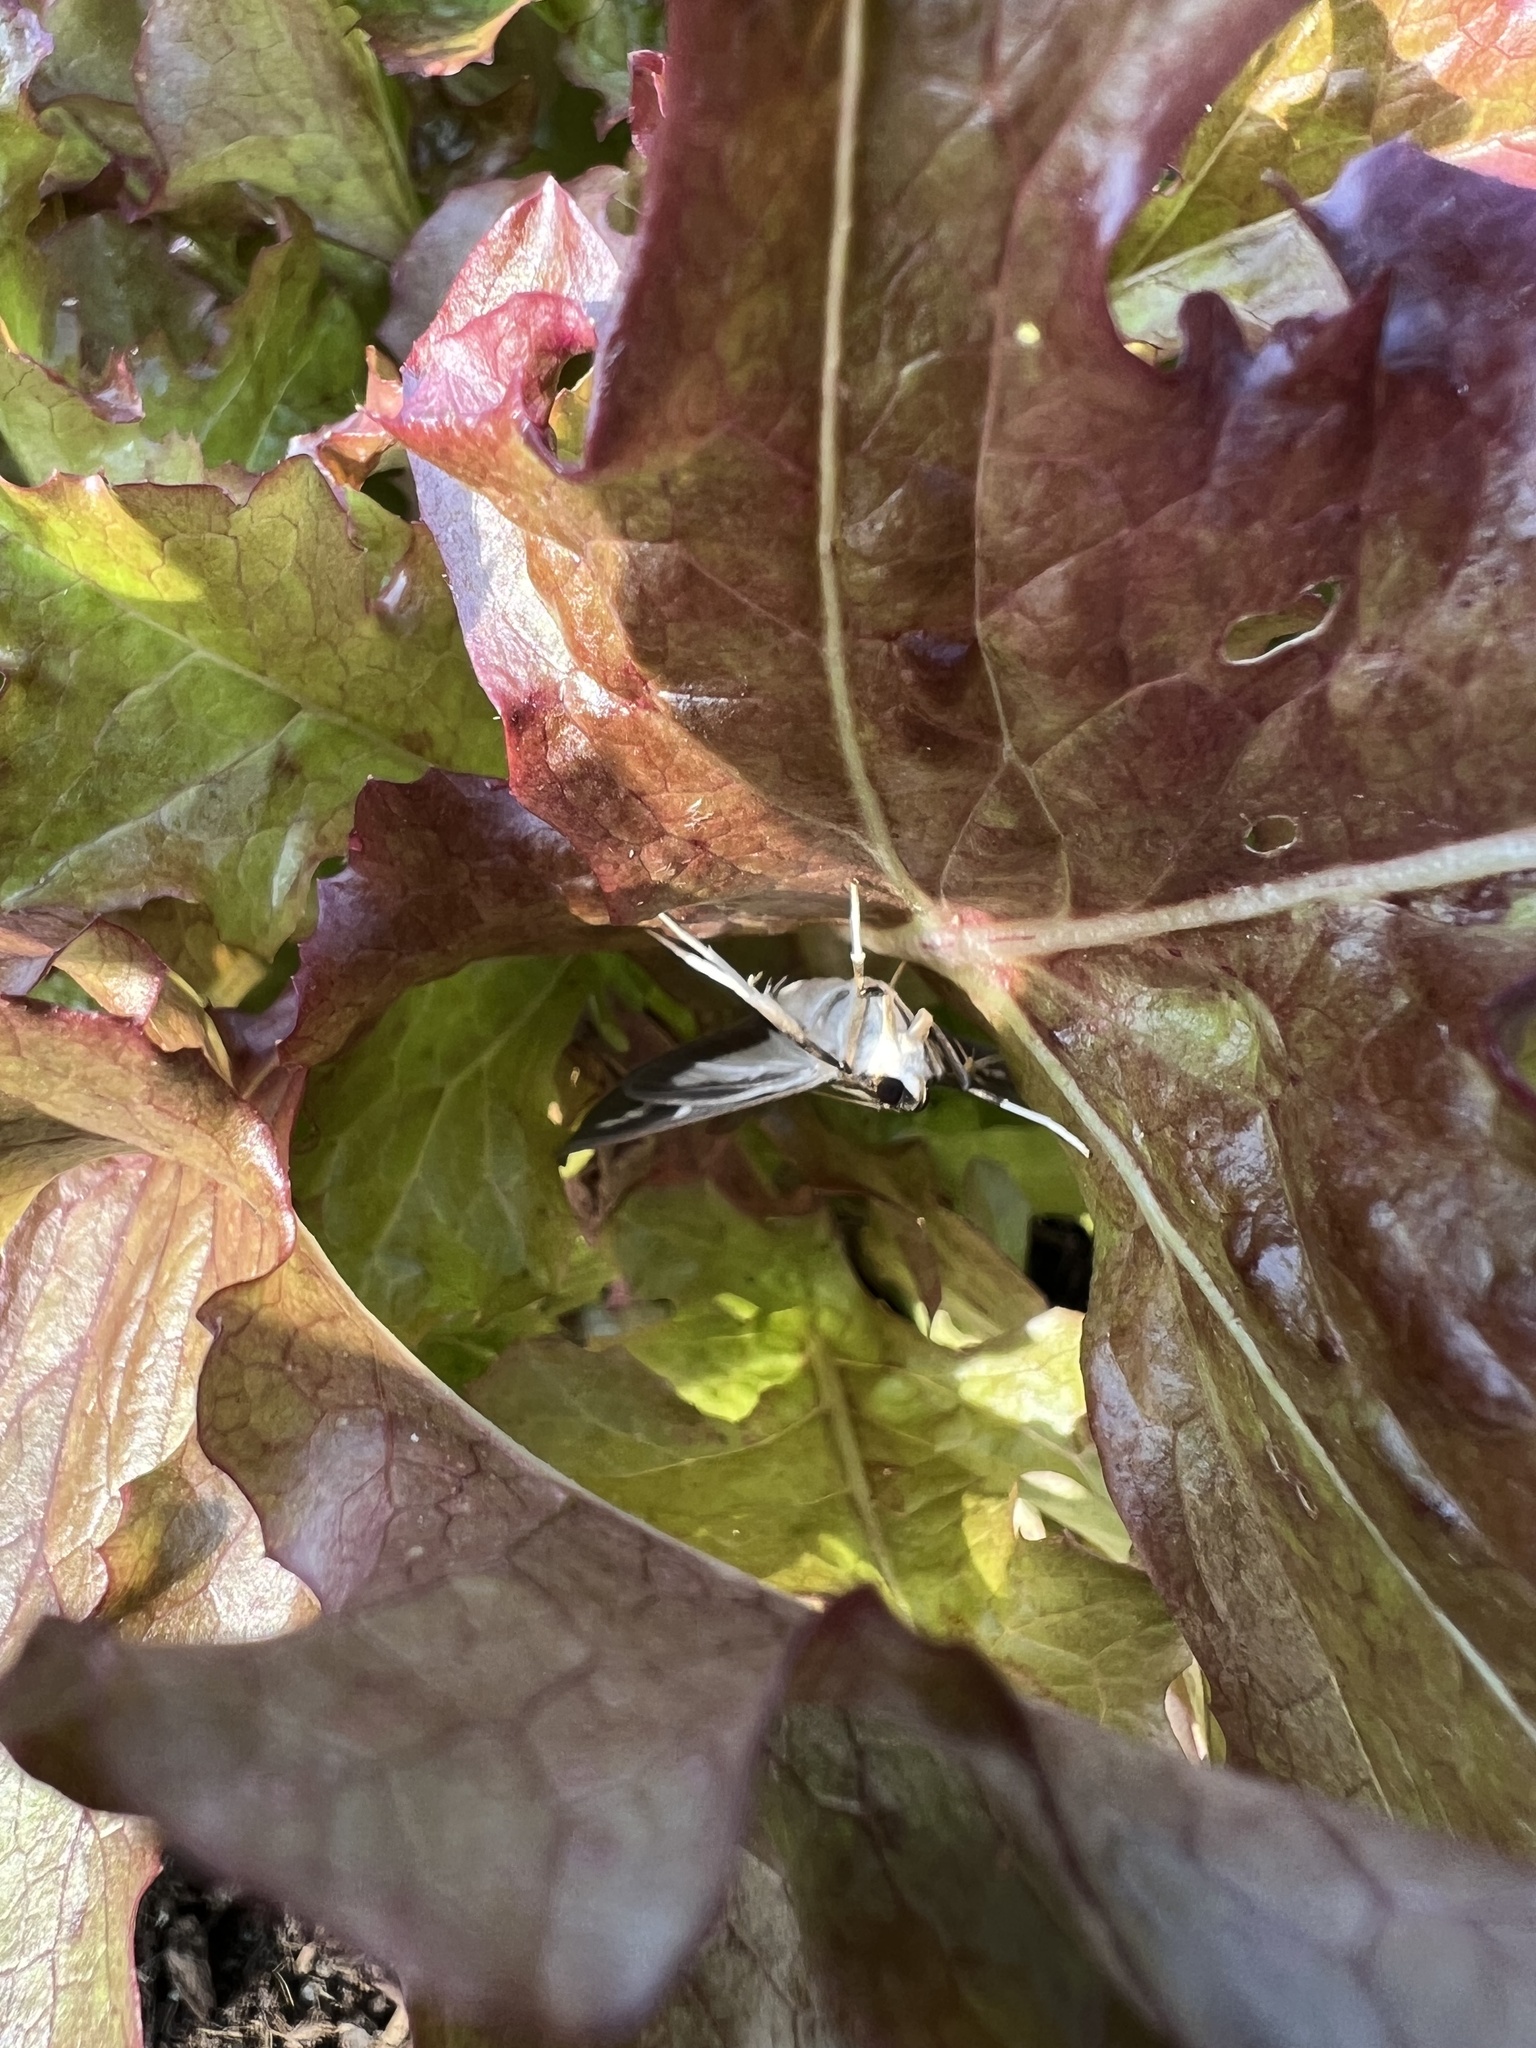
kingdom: Animalia
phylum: Arthropoda
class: Insecta
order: Lepidoptera
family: Crambidae
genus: Cydalima
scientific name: Cydalima perspectalis
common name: Box tree moth
